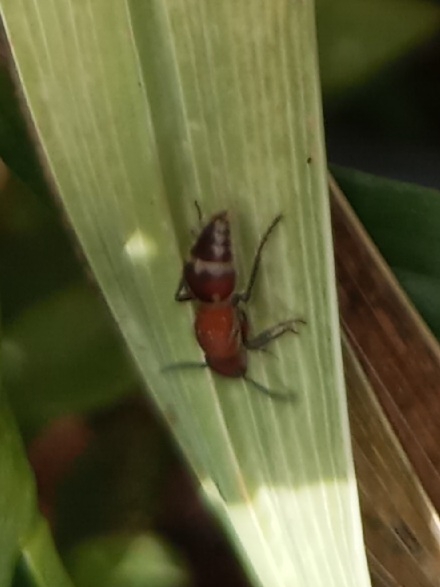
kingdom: Animalia
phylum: Arthropoda
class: Insecta
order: Hymenoptera
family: Mutillidae
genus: Timulla
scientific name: Timulla
